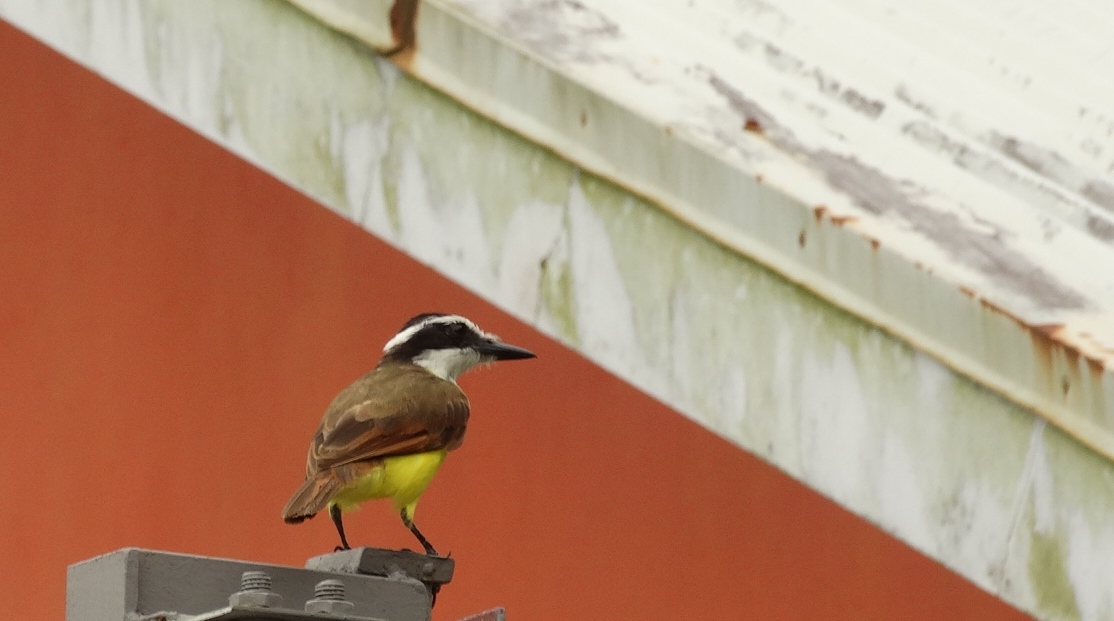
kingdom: Animalia
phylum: Chordata
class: Aves
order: Passeriformes
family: Tyrannidae
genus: Pitangus
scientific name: Pitangus sulphuratus
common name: Great kiskadee
